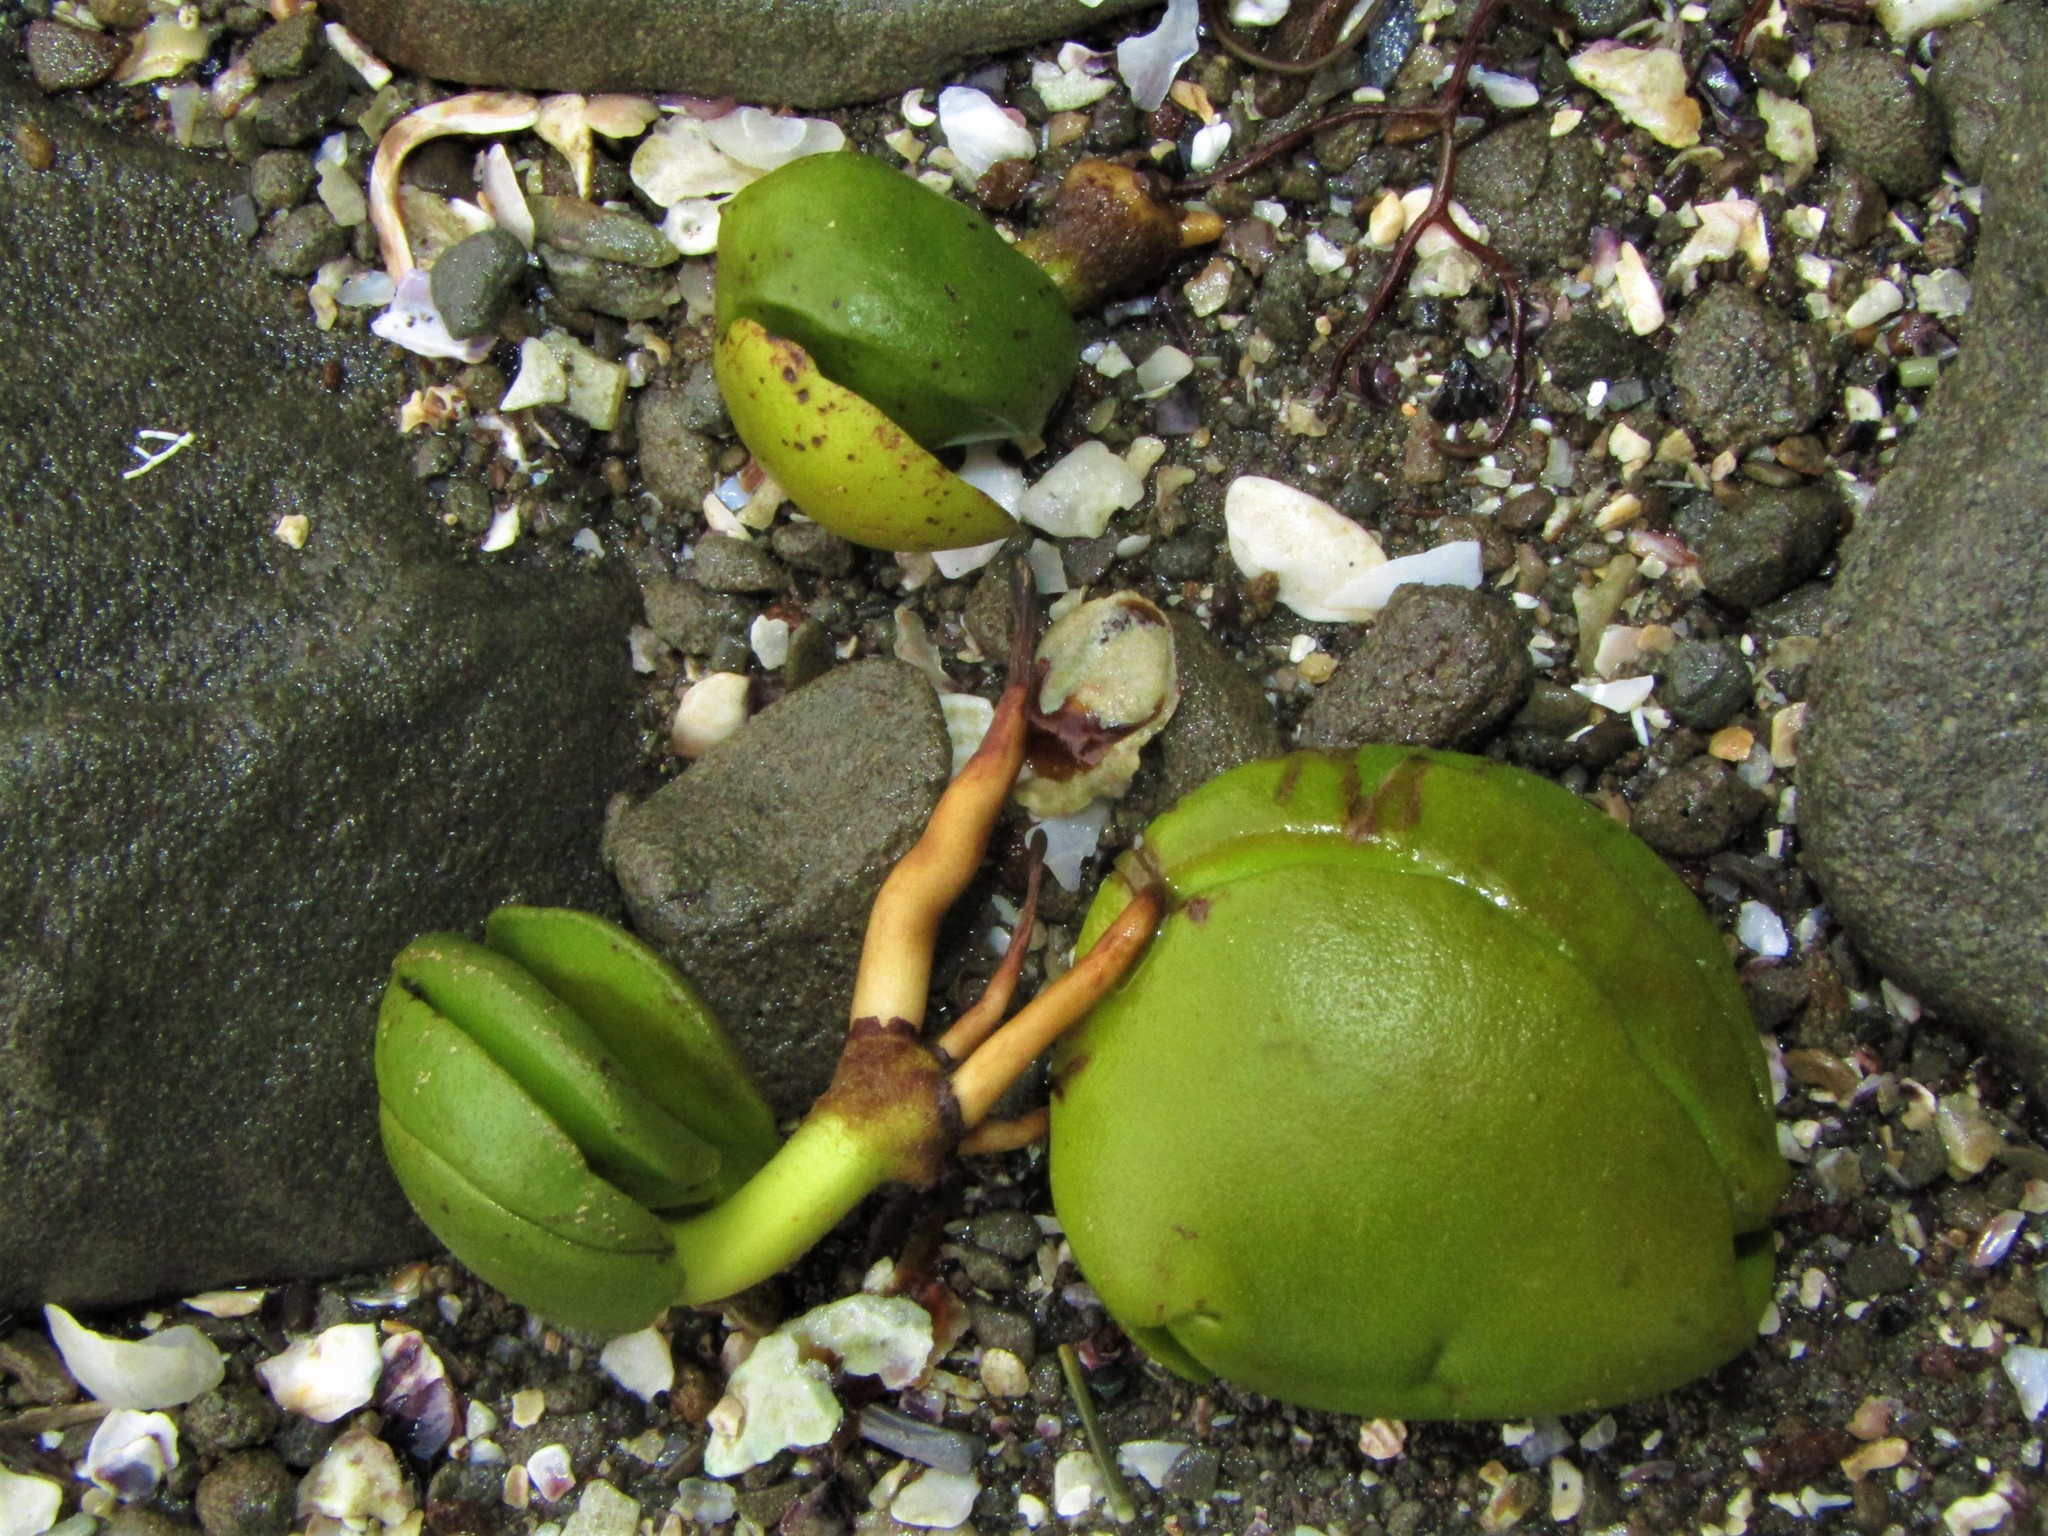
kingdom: Plantae
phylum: Tracheophyta
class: Magnoliopsida
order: Lamiales
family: Acanthaceae
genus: Avicennia
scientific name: Avicennia marina
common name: Gray mangrove
